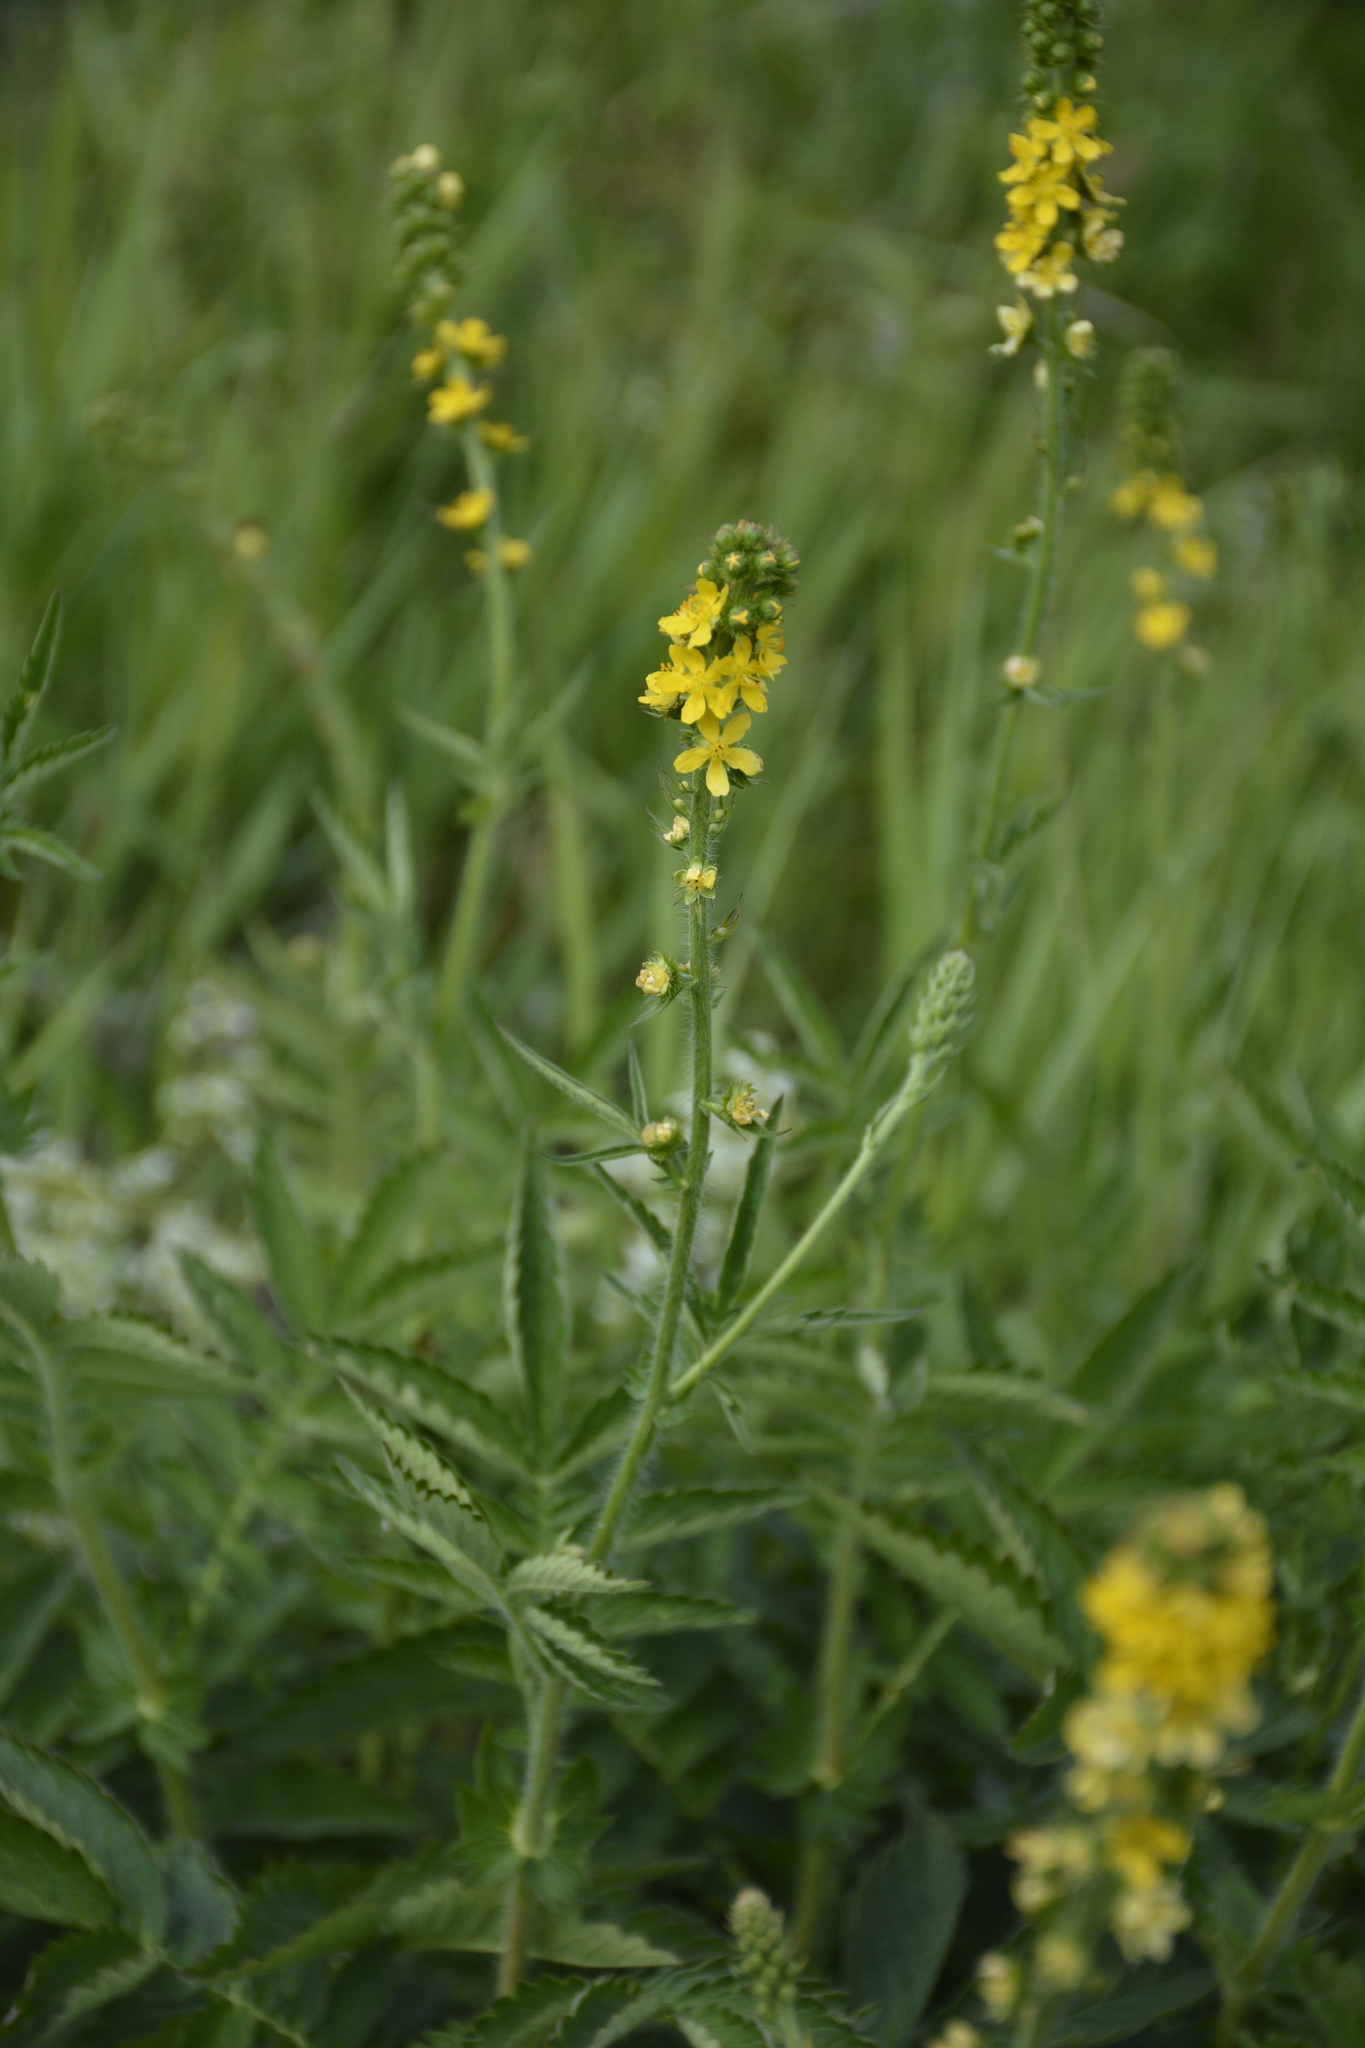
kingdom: Plantae
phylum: Tracheophyta
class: Magnoliopsida
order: Rosales
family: Rosaceae
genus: Agrimonia
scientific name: Agrimonia eupatoria
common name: Agrimony
